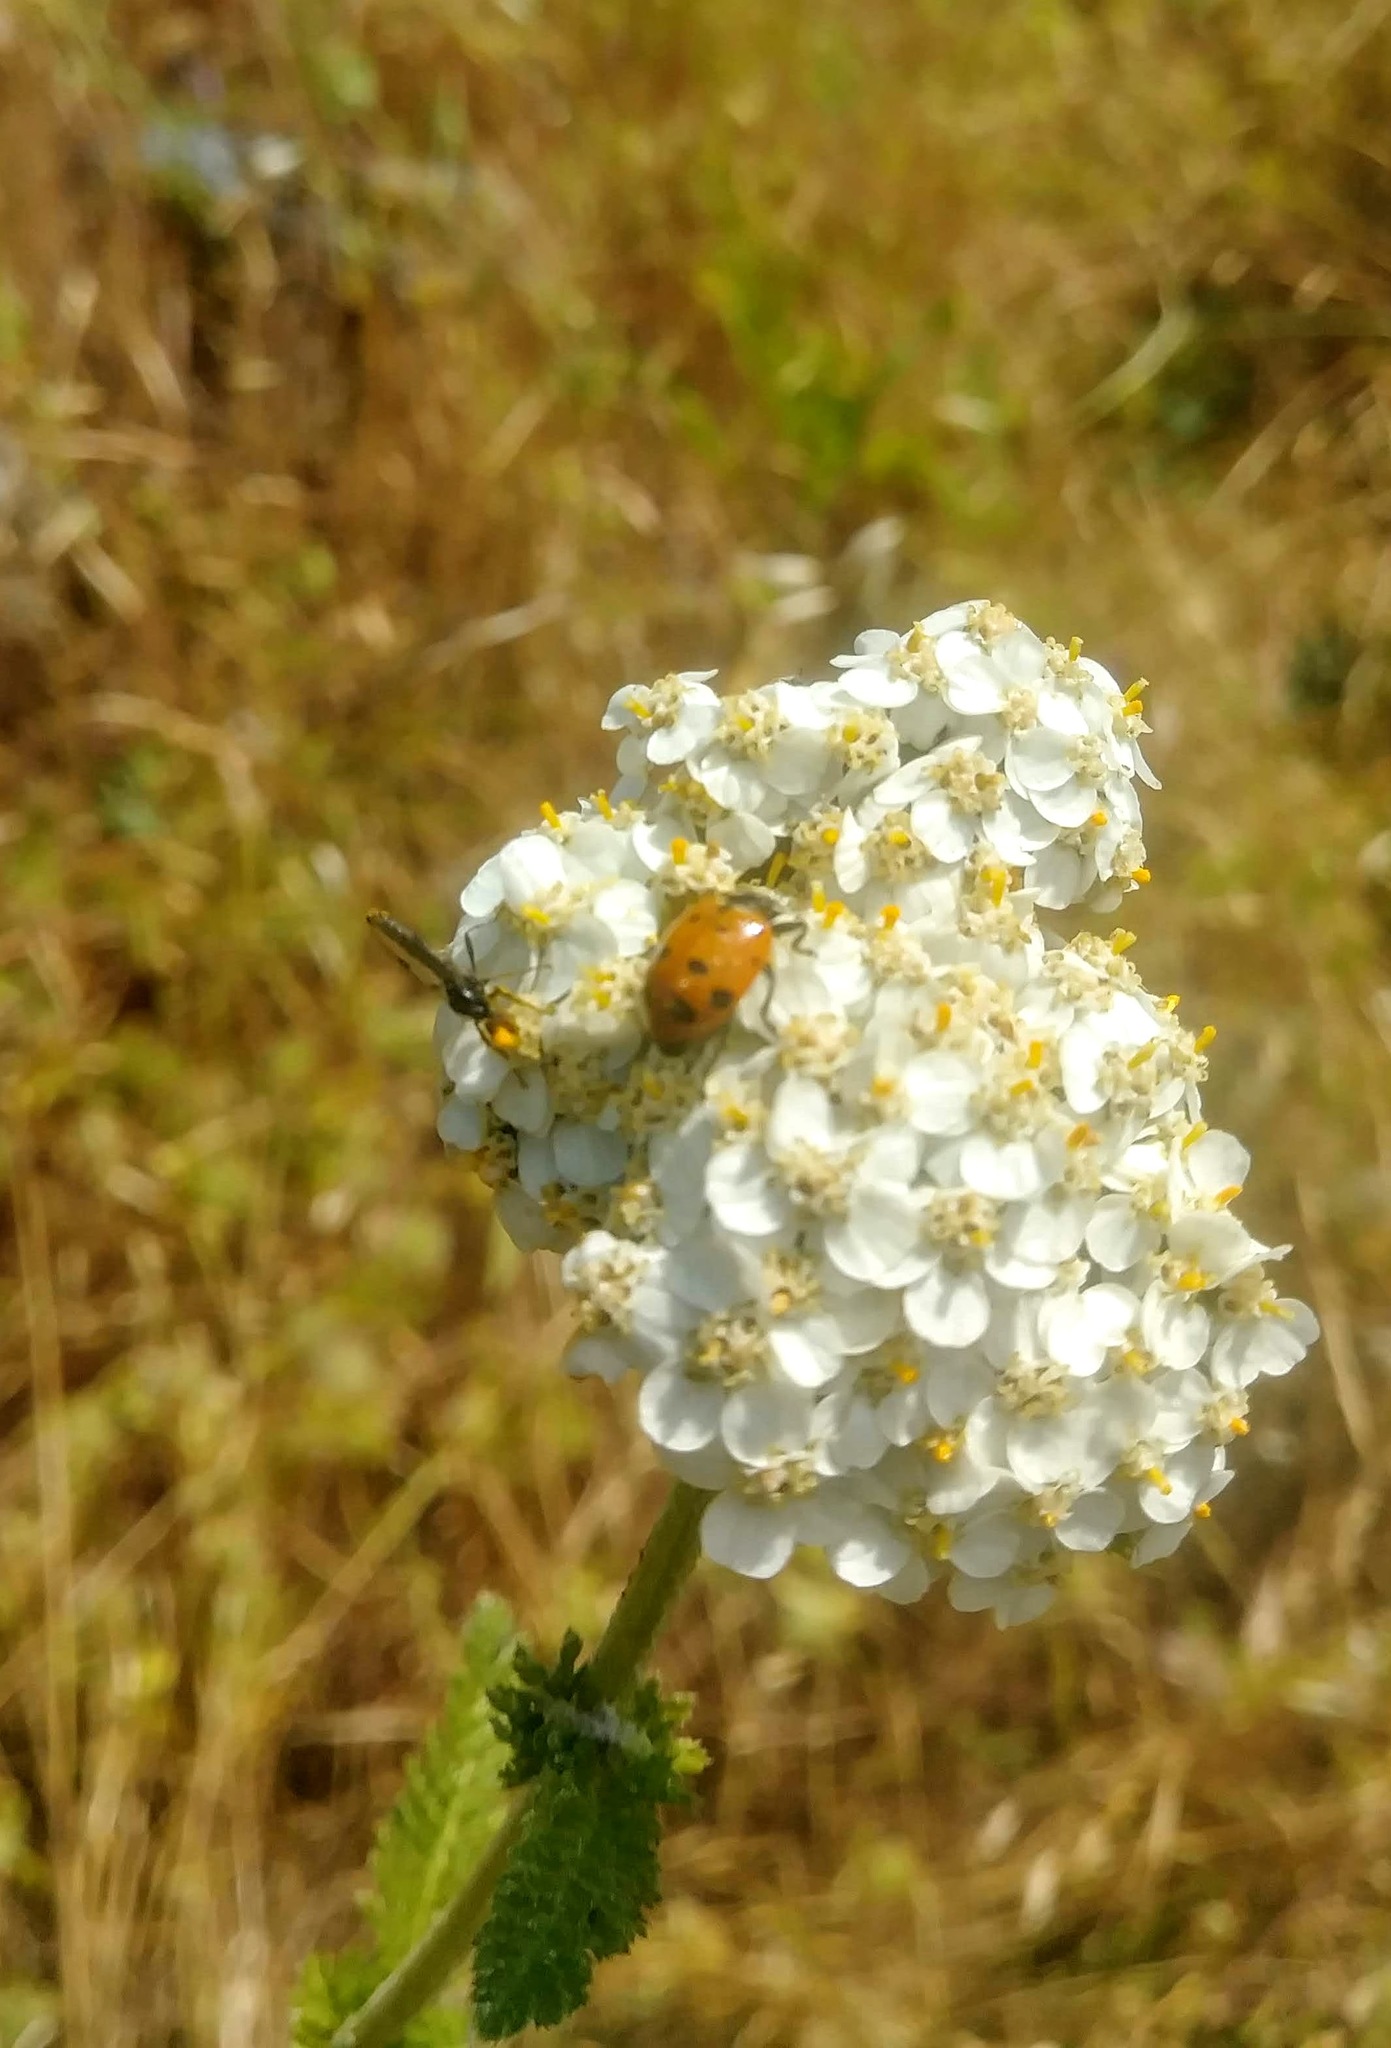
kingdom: Plantae
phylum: Tracheophyta
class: Magnoliopsida
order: Asterales
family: Asteraceae
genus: Achillea
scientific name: Achillea millefolium
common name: Yarrow
